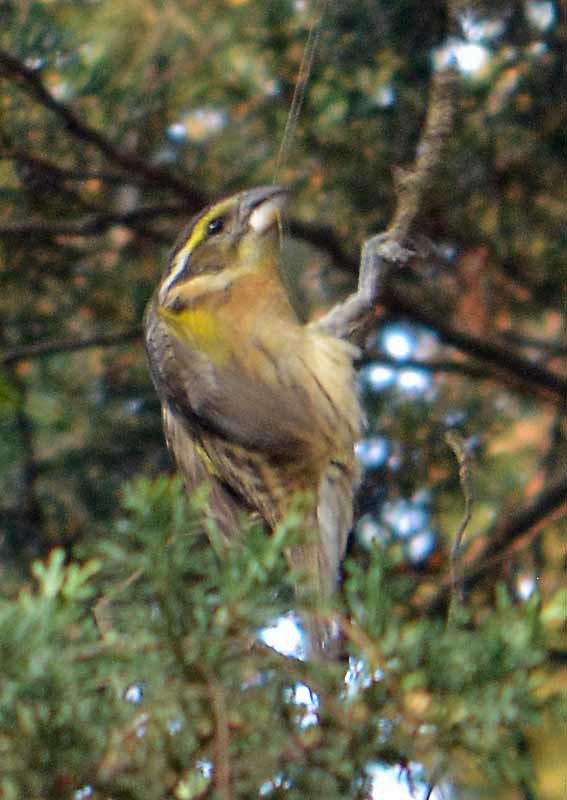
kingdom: Animalia
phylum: Chordata
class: Aves
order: Passeriformes
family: Cardinalidae
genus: Pheucticus
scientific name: Pheucticus melanocephalus
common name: Black-headed grosbeak
